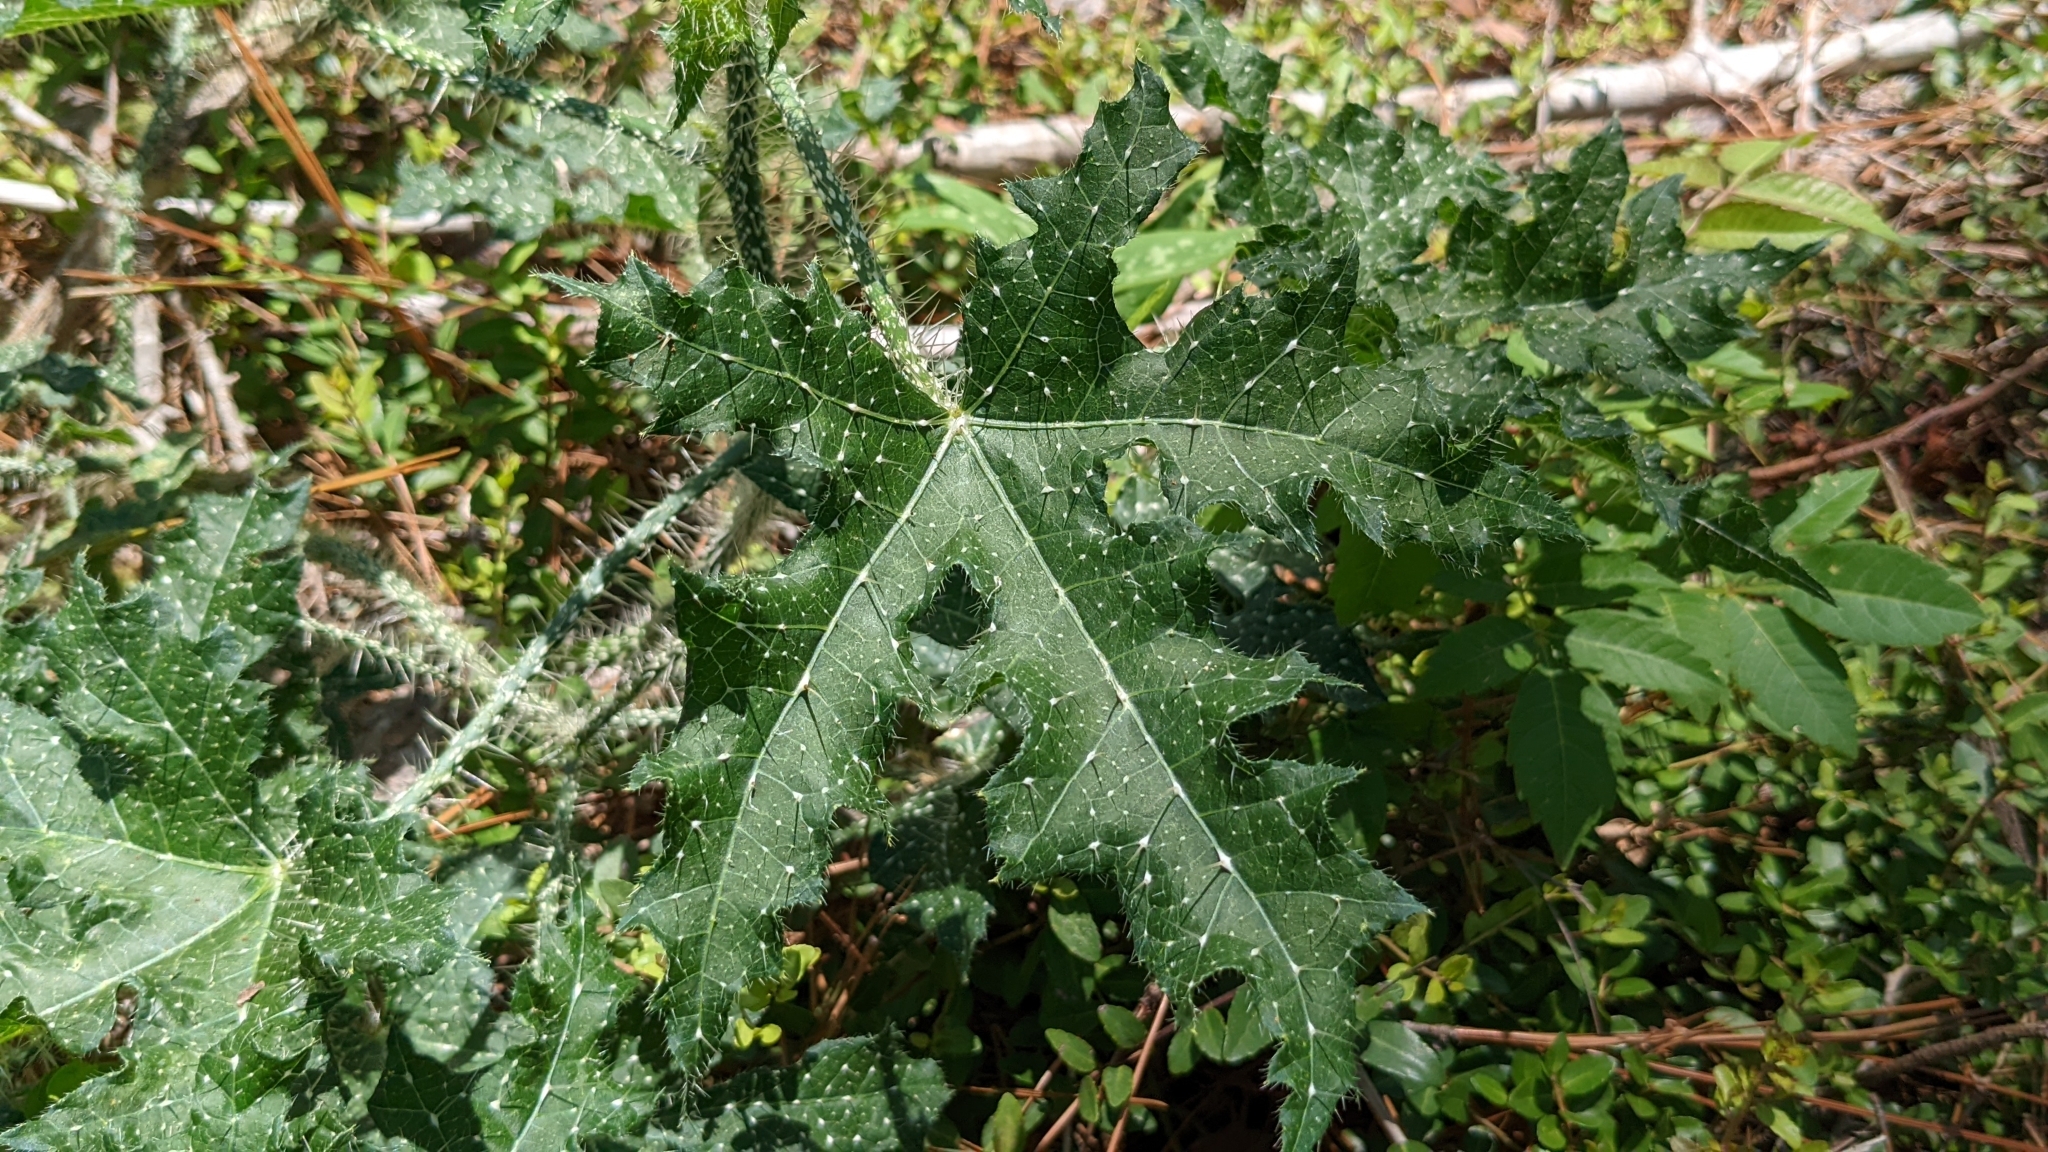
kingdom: Plantae
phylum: Tracheophyta
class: Magnoliopsida
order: Malpighiales
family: Euphorbiaceae
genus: Cnidoscolus
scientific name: Cnidoscolus texanus
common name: Texas bull-nettle
